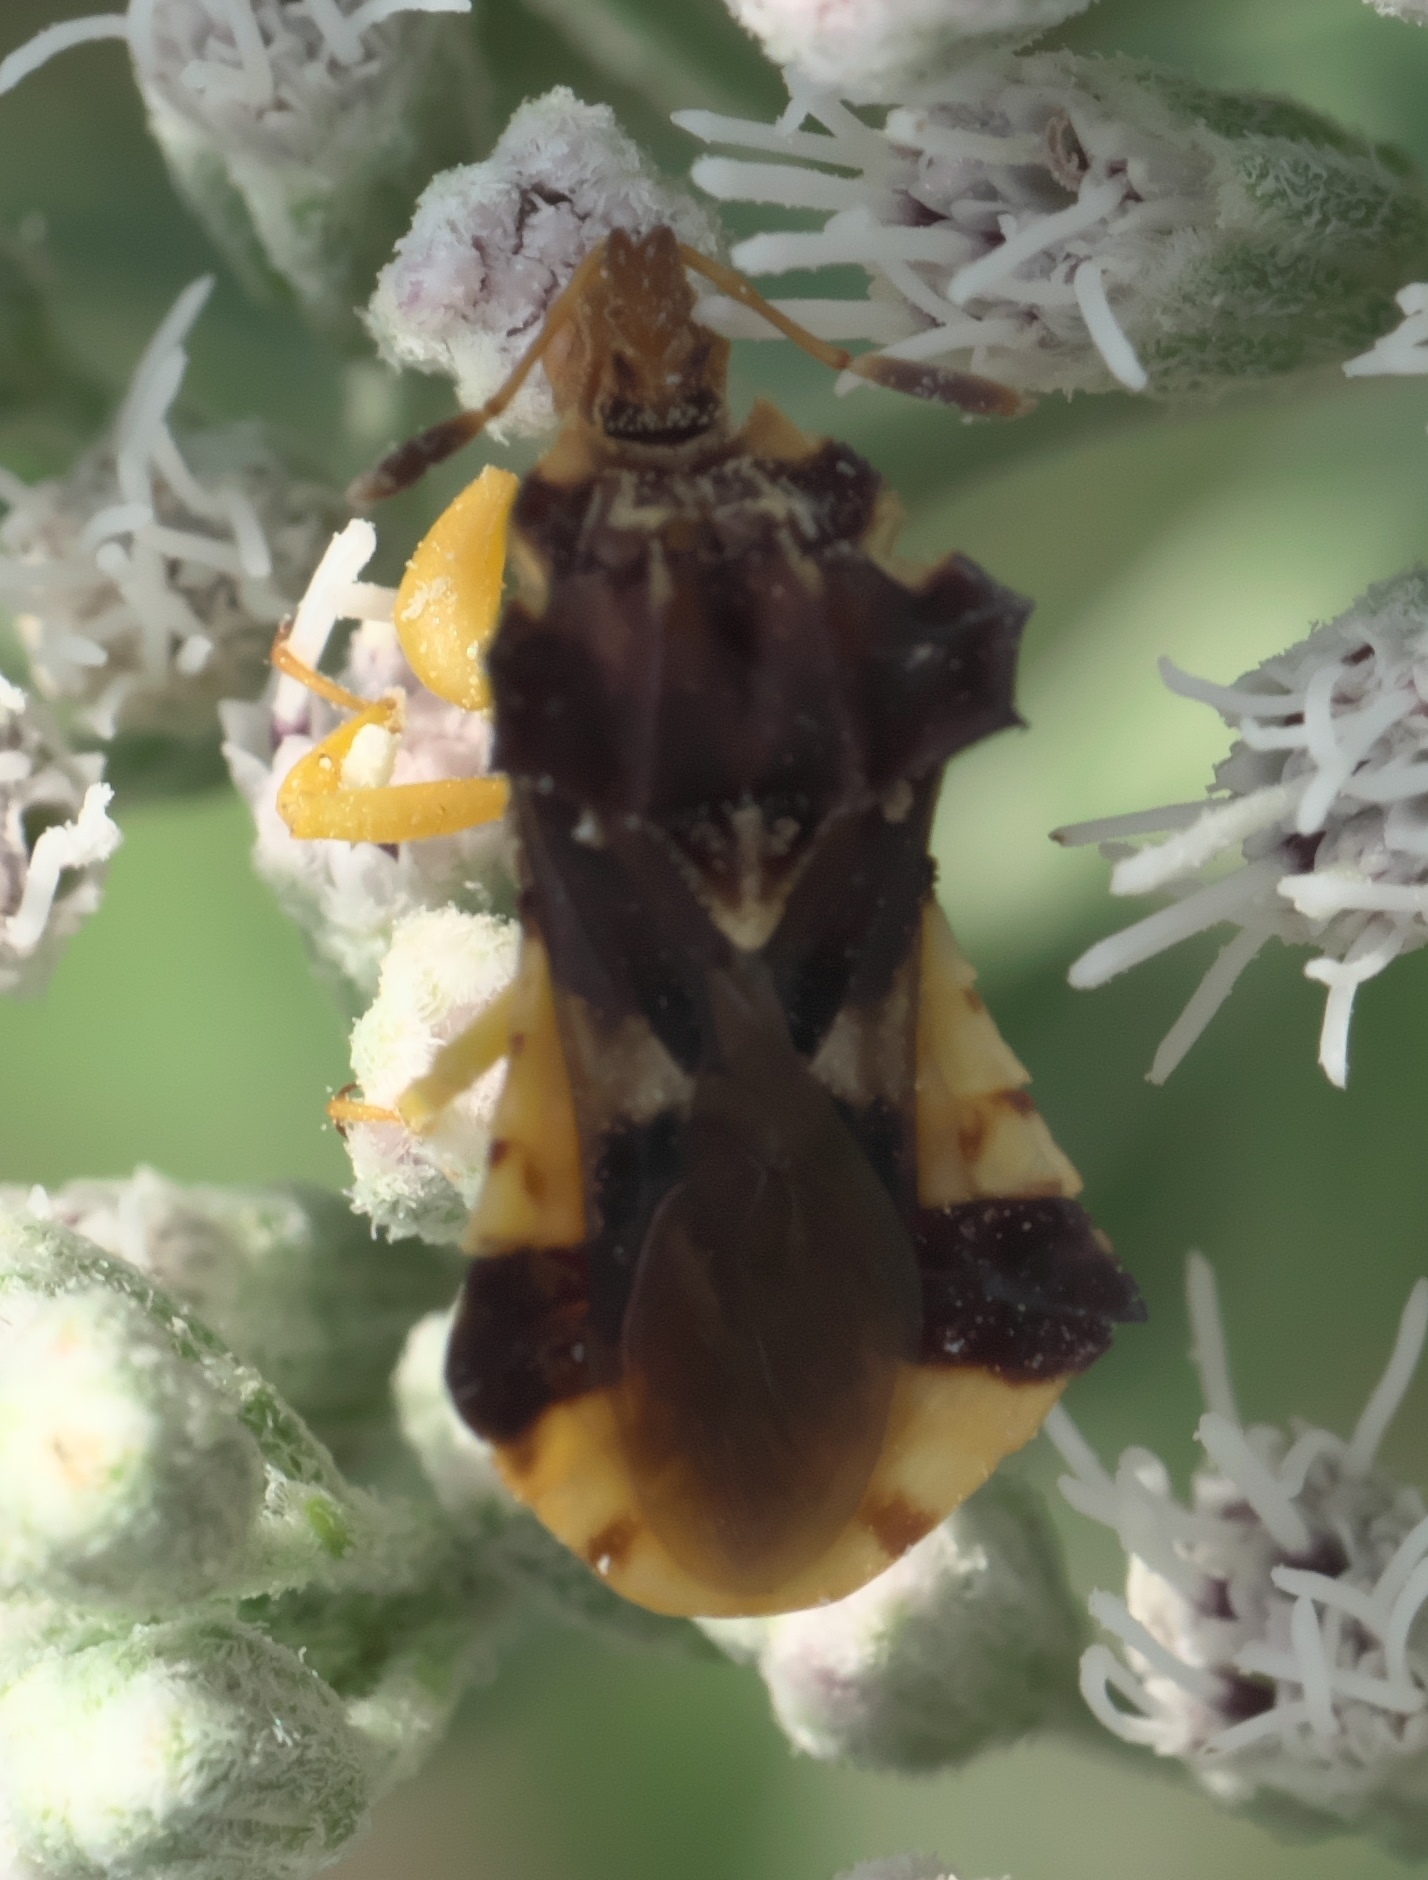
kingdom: Animalia
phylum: Arthropoda
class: Insecta
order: Hemiptera
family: Reduviidae
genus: Phymata
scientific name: Phymata americana
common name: Jagged ambush bug
